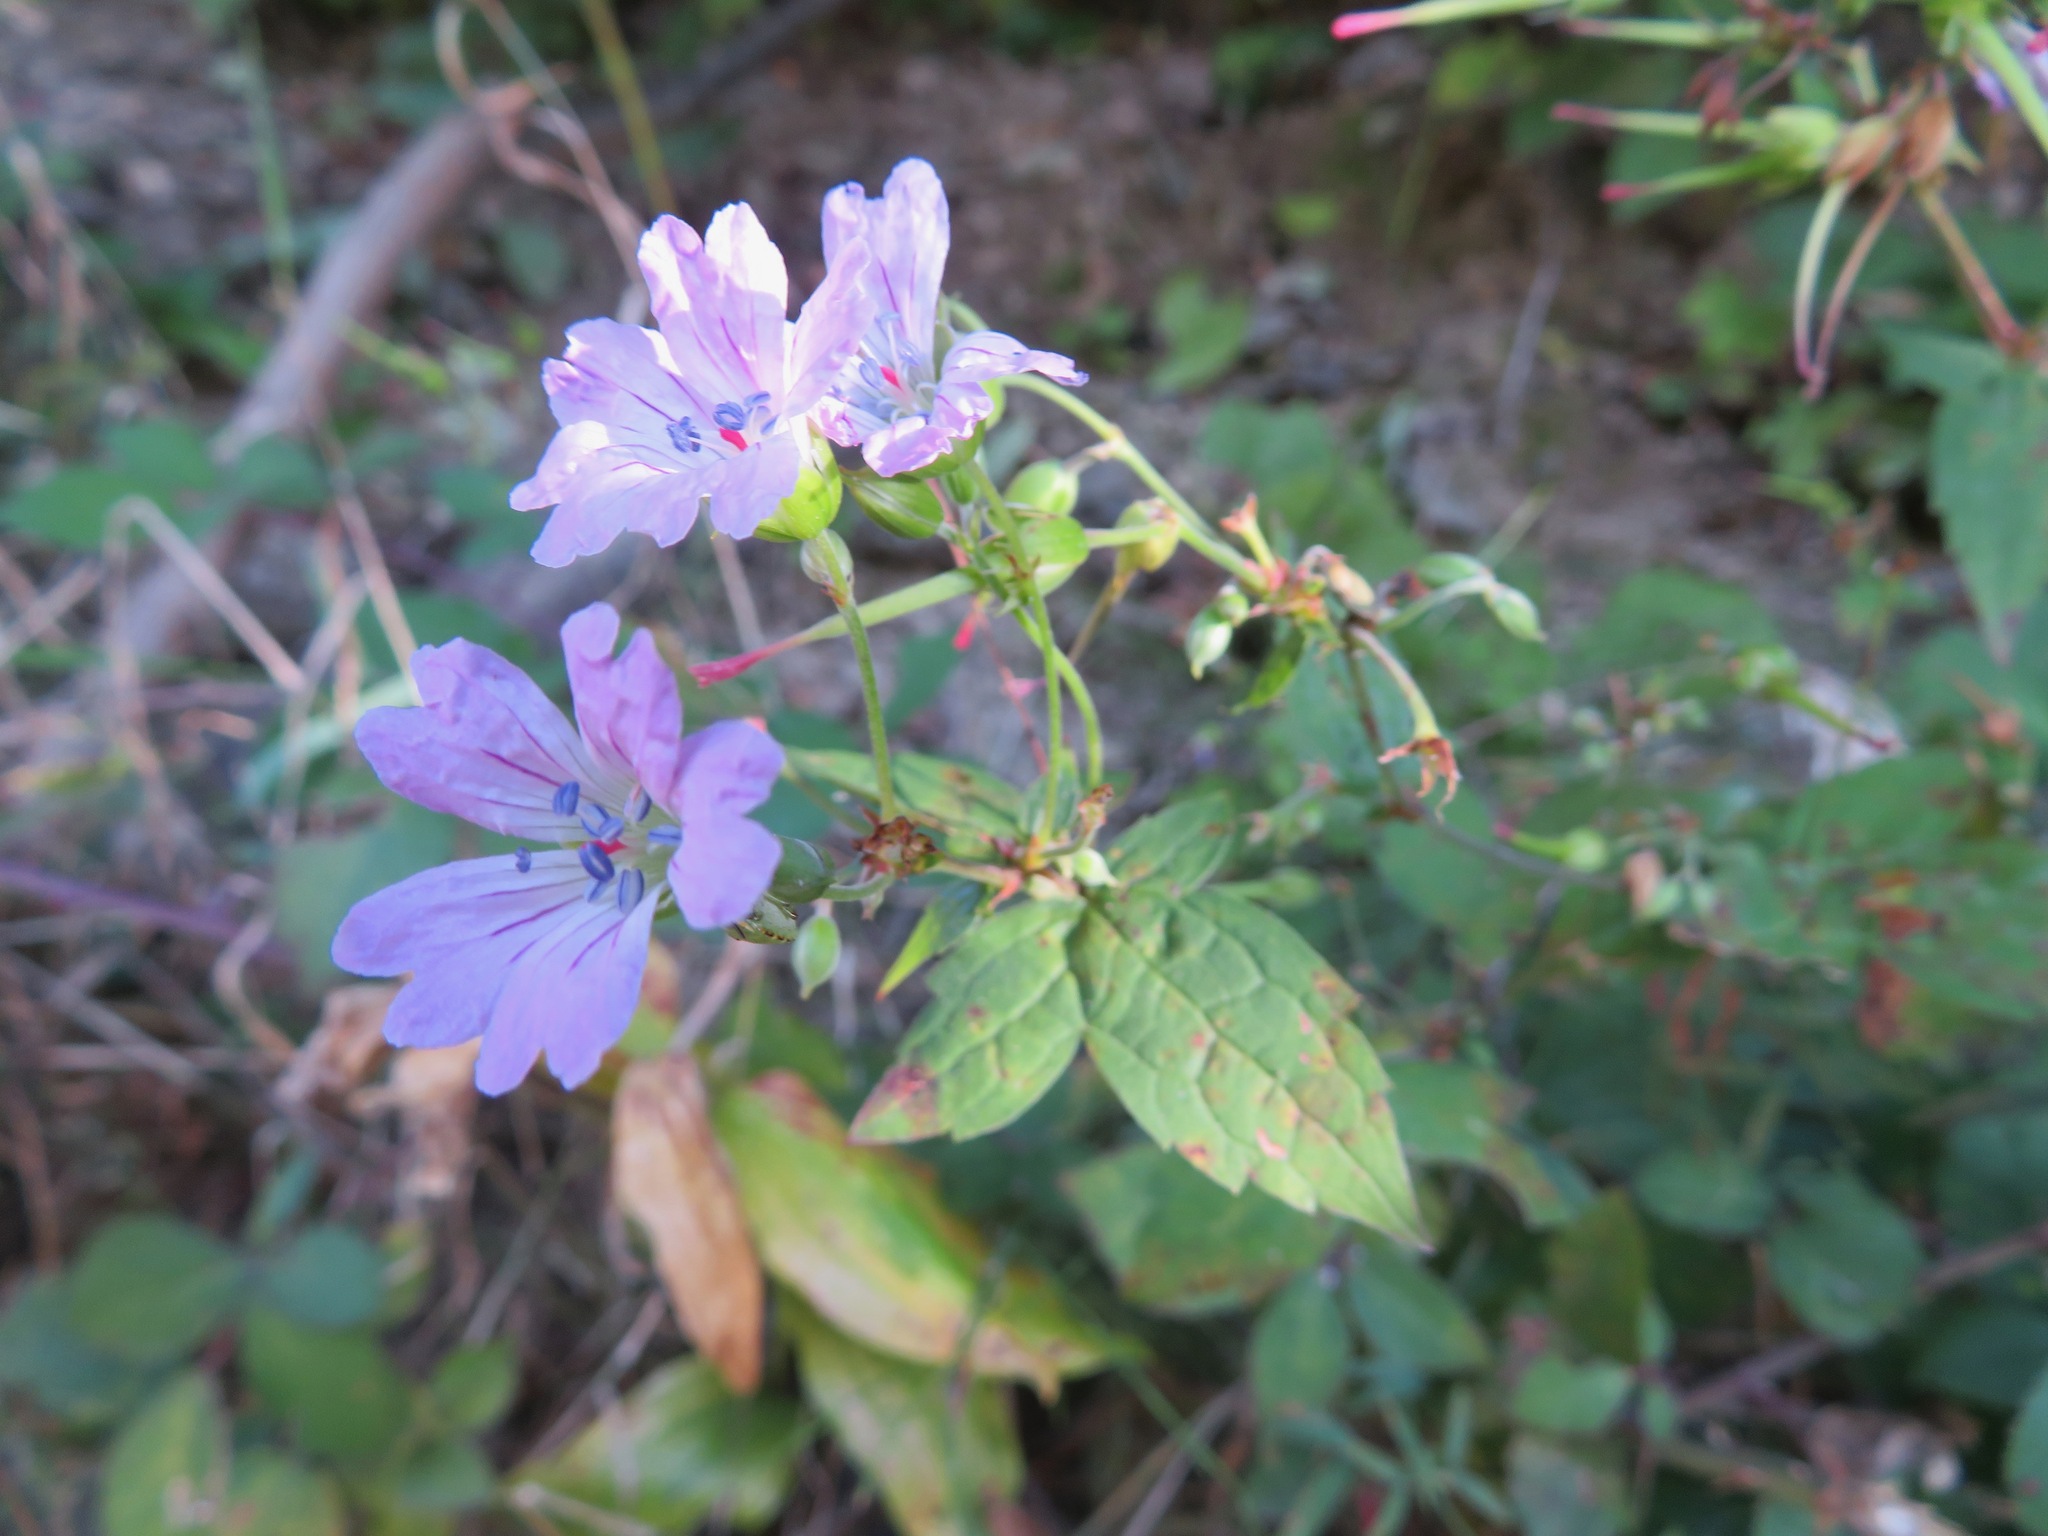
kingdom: Plantae
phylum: Tracheophyta
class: Magnoliopsida
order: Geraniales
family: Geraniaceae
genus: Geranium
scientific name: Geranium nodosum
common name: Knotted crane's-bill
